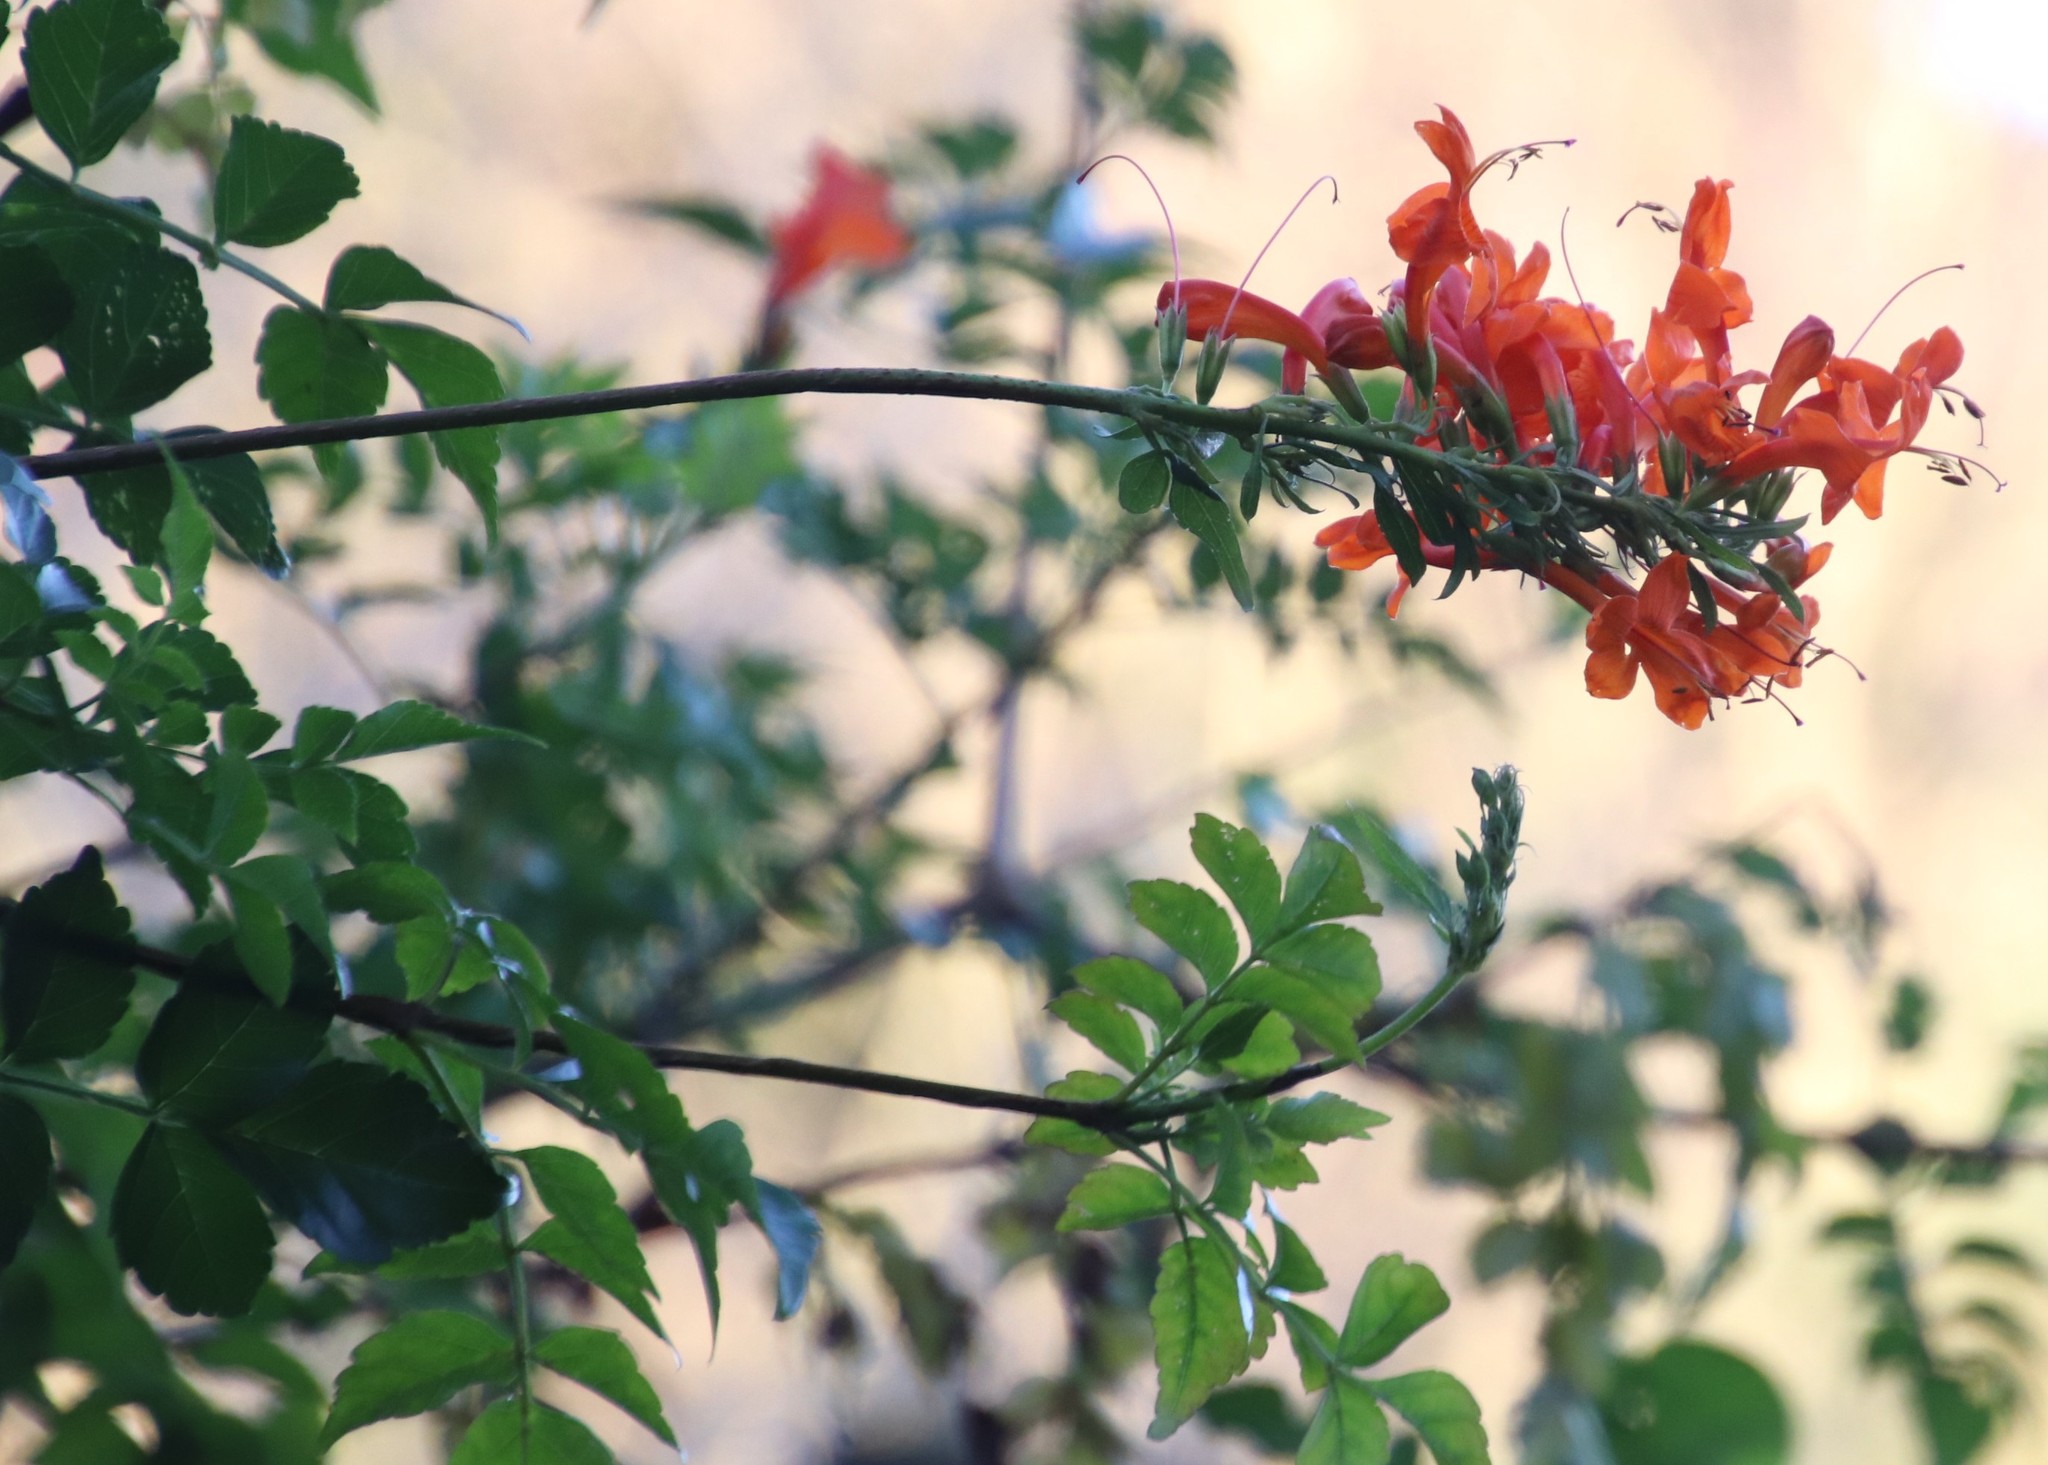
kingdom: Plantae
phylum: Tracheophyta
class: Magnoliopsida
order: Lamiales
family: Bignoniaceae
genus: Tecomaria
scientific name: Tecomaria capensis
